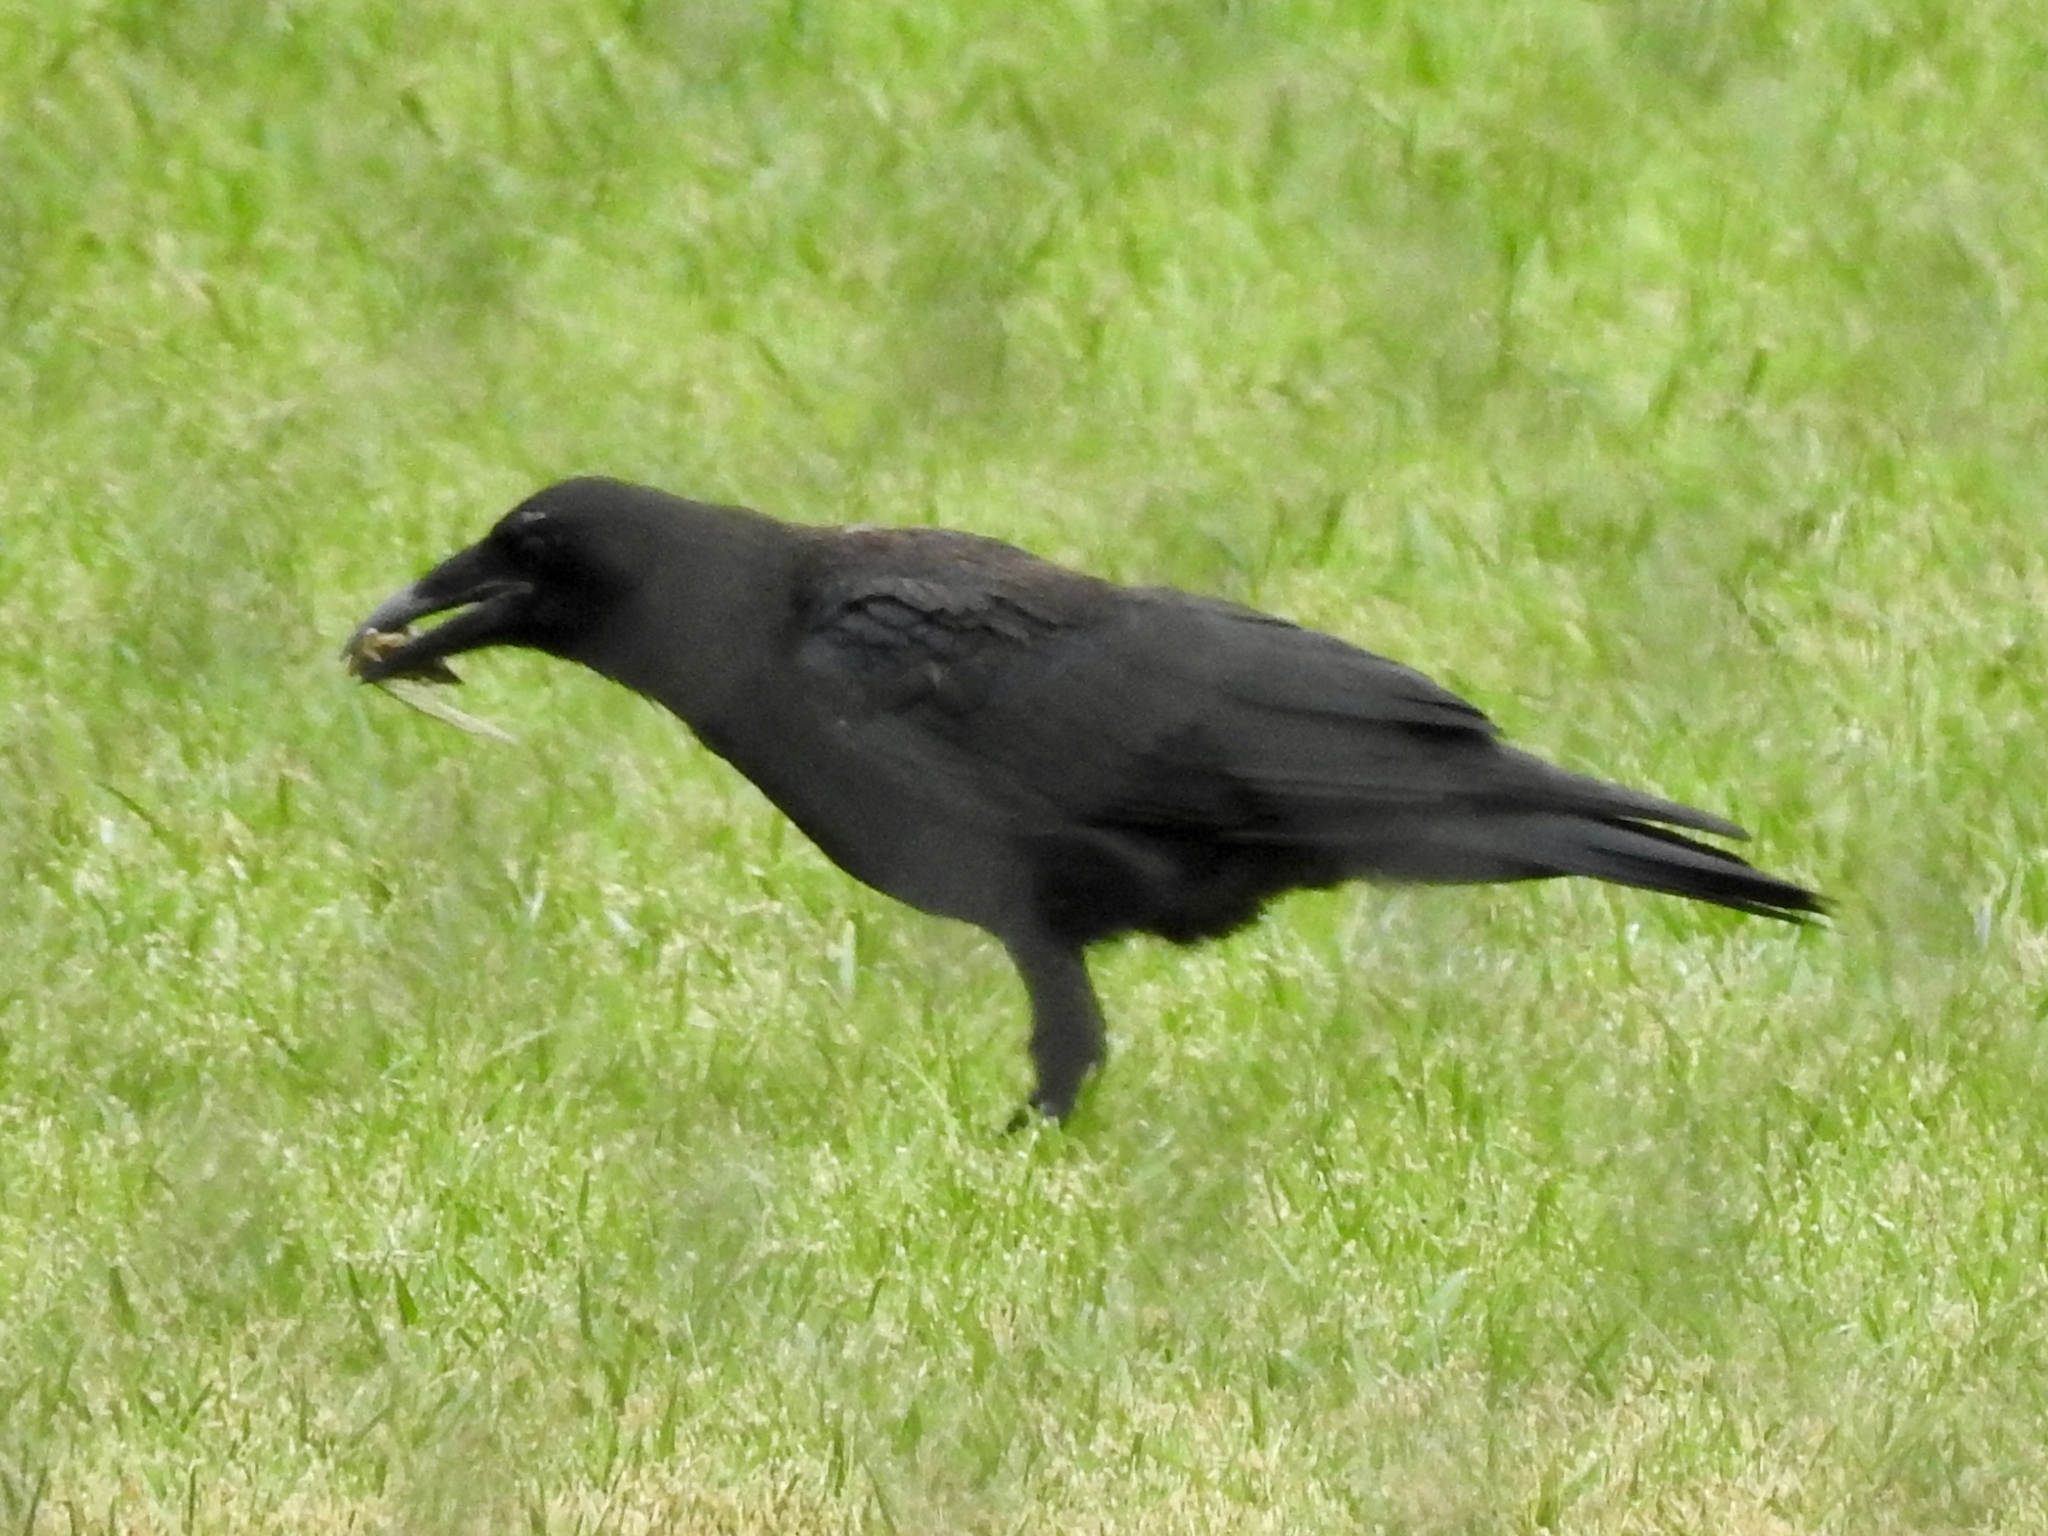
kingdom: Animalia
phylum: Chordata
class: Aves
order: Passeriformes
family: Corvidae
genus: Corvus
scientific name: Corvus brachyrhynchos
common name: American crow
